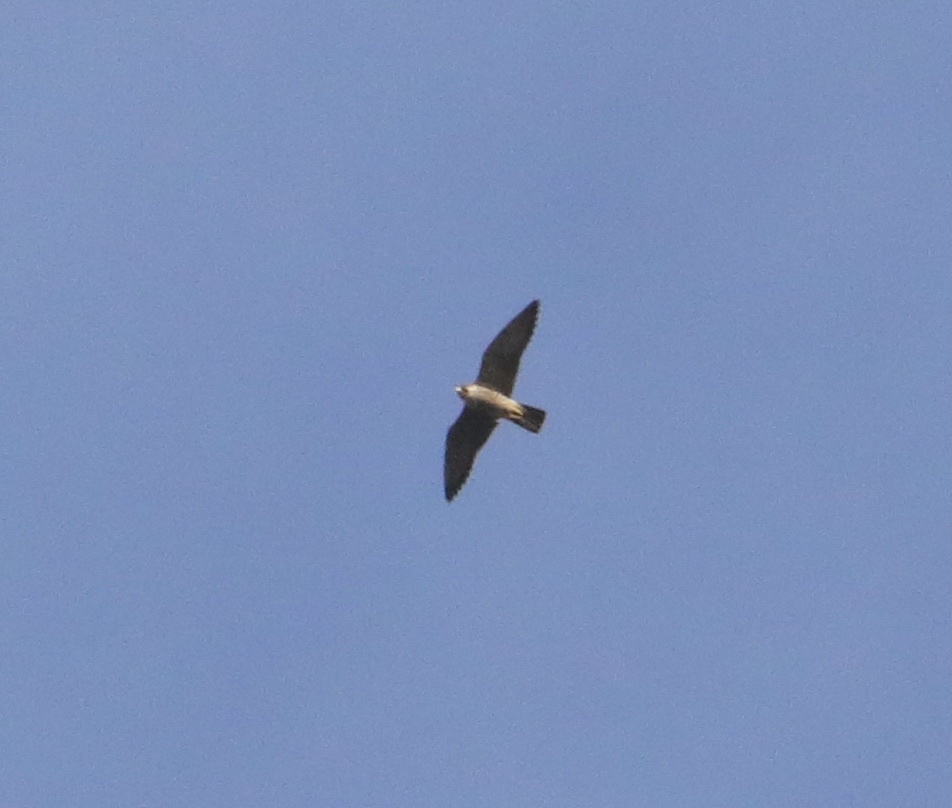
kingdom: Animalia
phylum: Chordata
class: Aves
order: Falconiformes
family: Falconidae
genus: Falco
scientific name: Falco peregrinus
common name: Peregrine falcon
